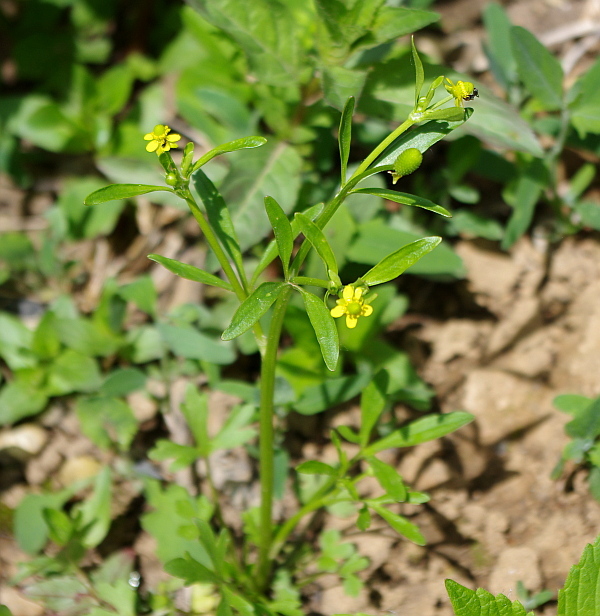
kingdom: Plantae
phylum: Tracheophyta
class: Magnoliopsida
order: Ranunculales
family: Ranunculaceae
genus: Ranunculus
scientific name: Ranunculus sceleratus
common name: Celery-leaved buttercup
